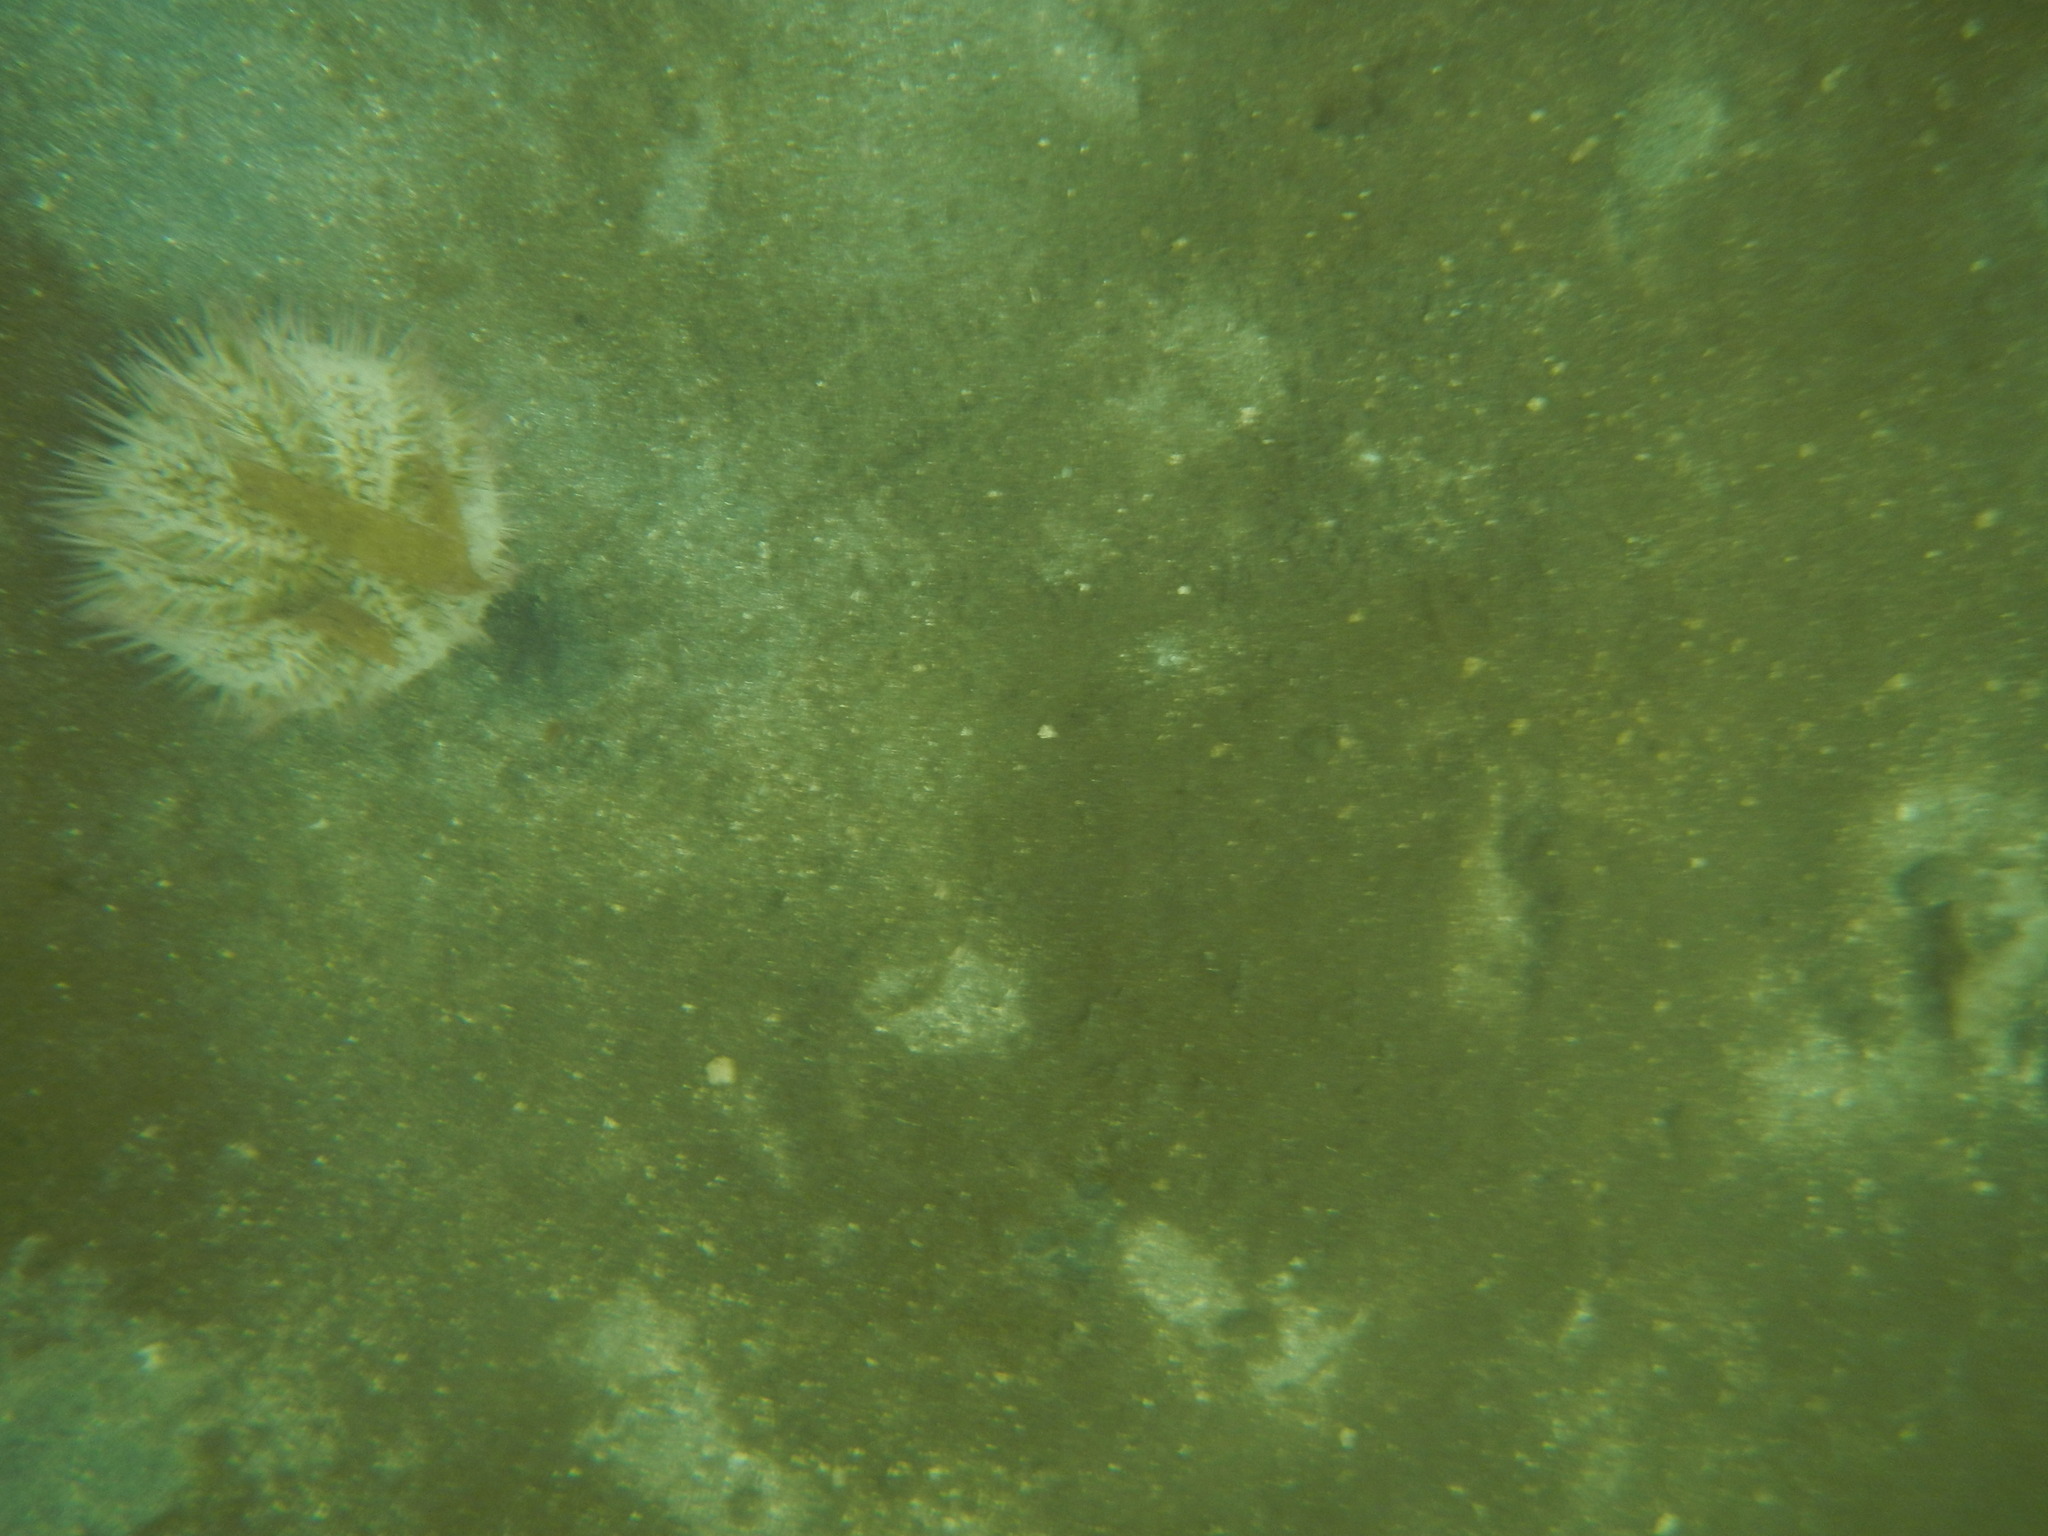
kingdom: Animalia
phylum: Echinodermata
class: Echinoidea
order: Camarodonta
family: Toxopneustidae
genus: Lytechinus
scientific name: Lytechinus variegatus
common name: Variegated urchin
